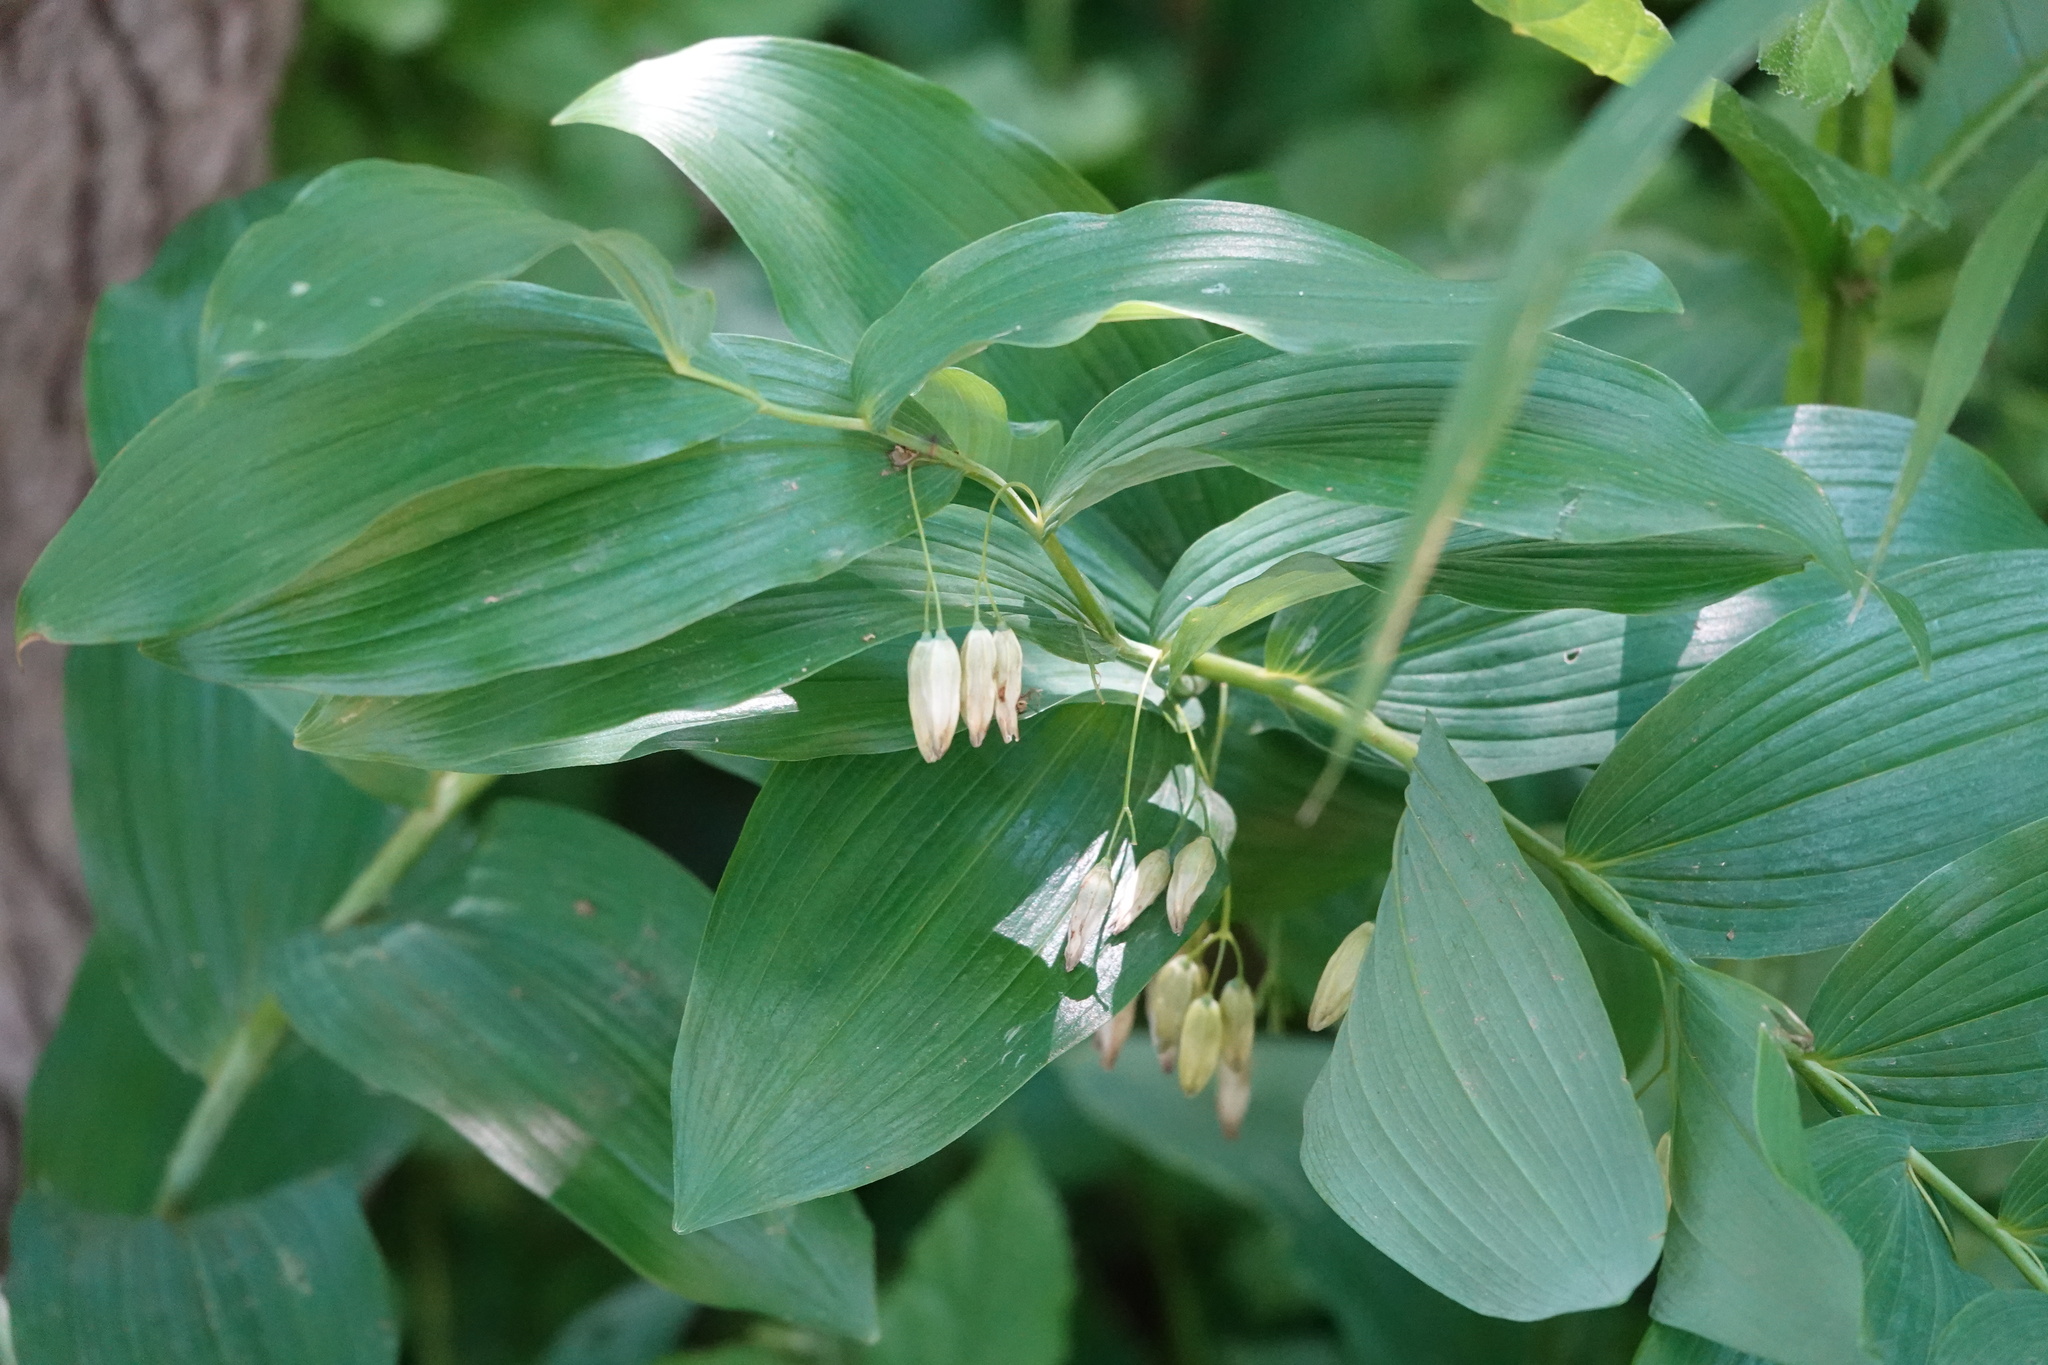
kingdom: Plantae
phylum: Tracheophyta
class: Liliopsida
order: Asparagales
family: Asparagaceae
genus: Polygonatum
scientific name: Polygonatum biflorum
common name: American solomon's-seal
